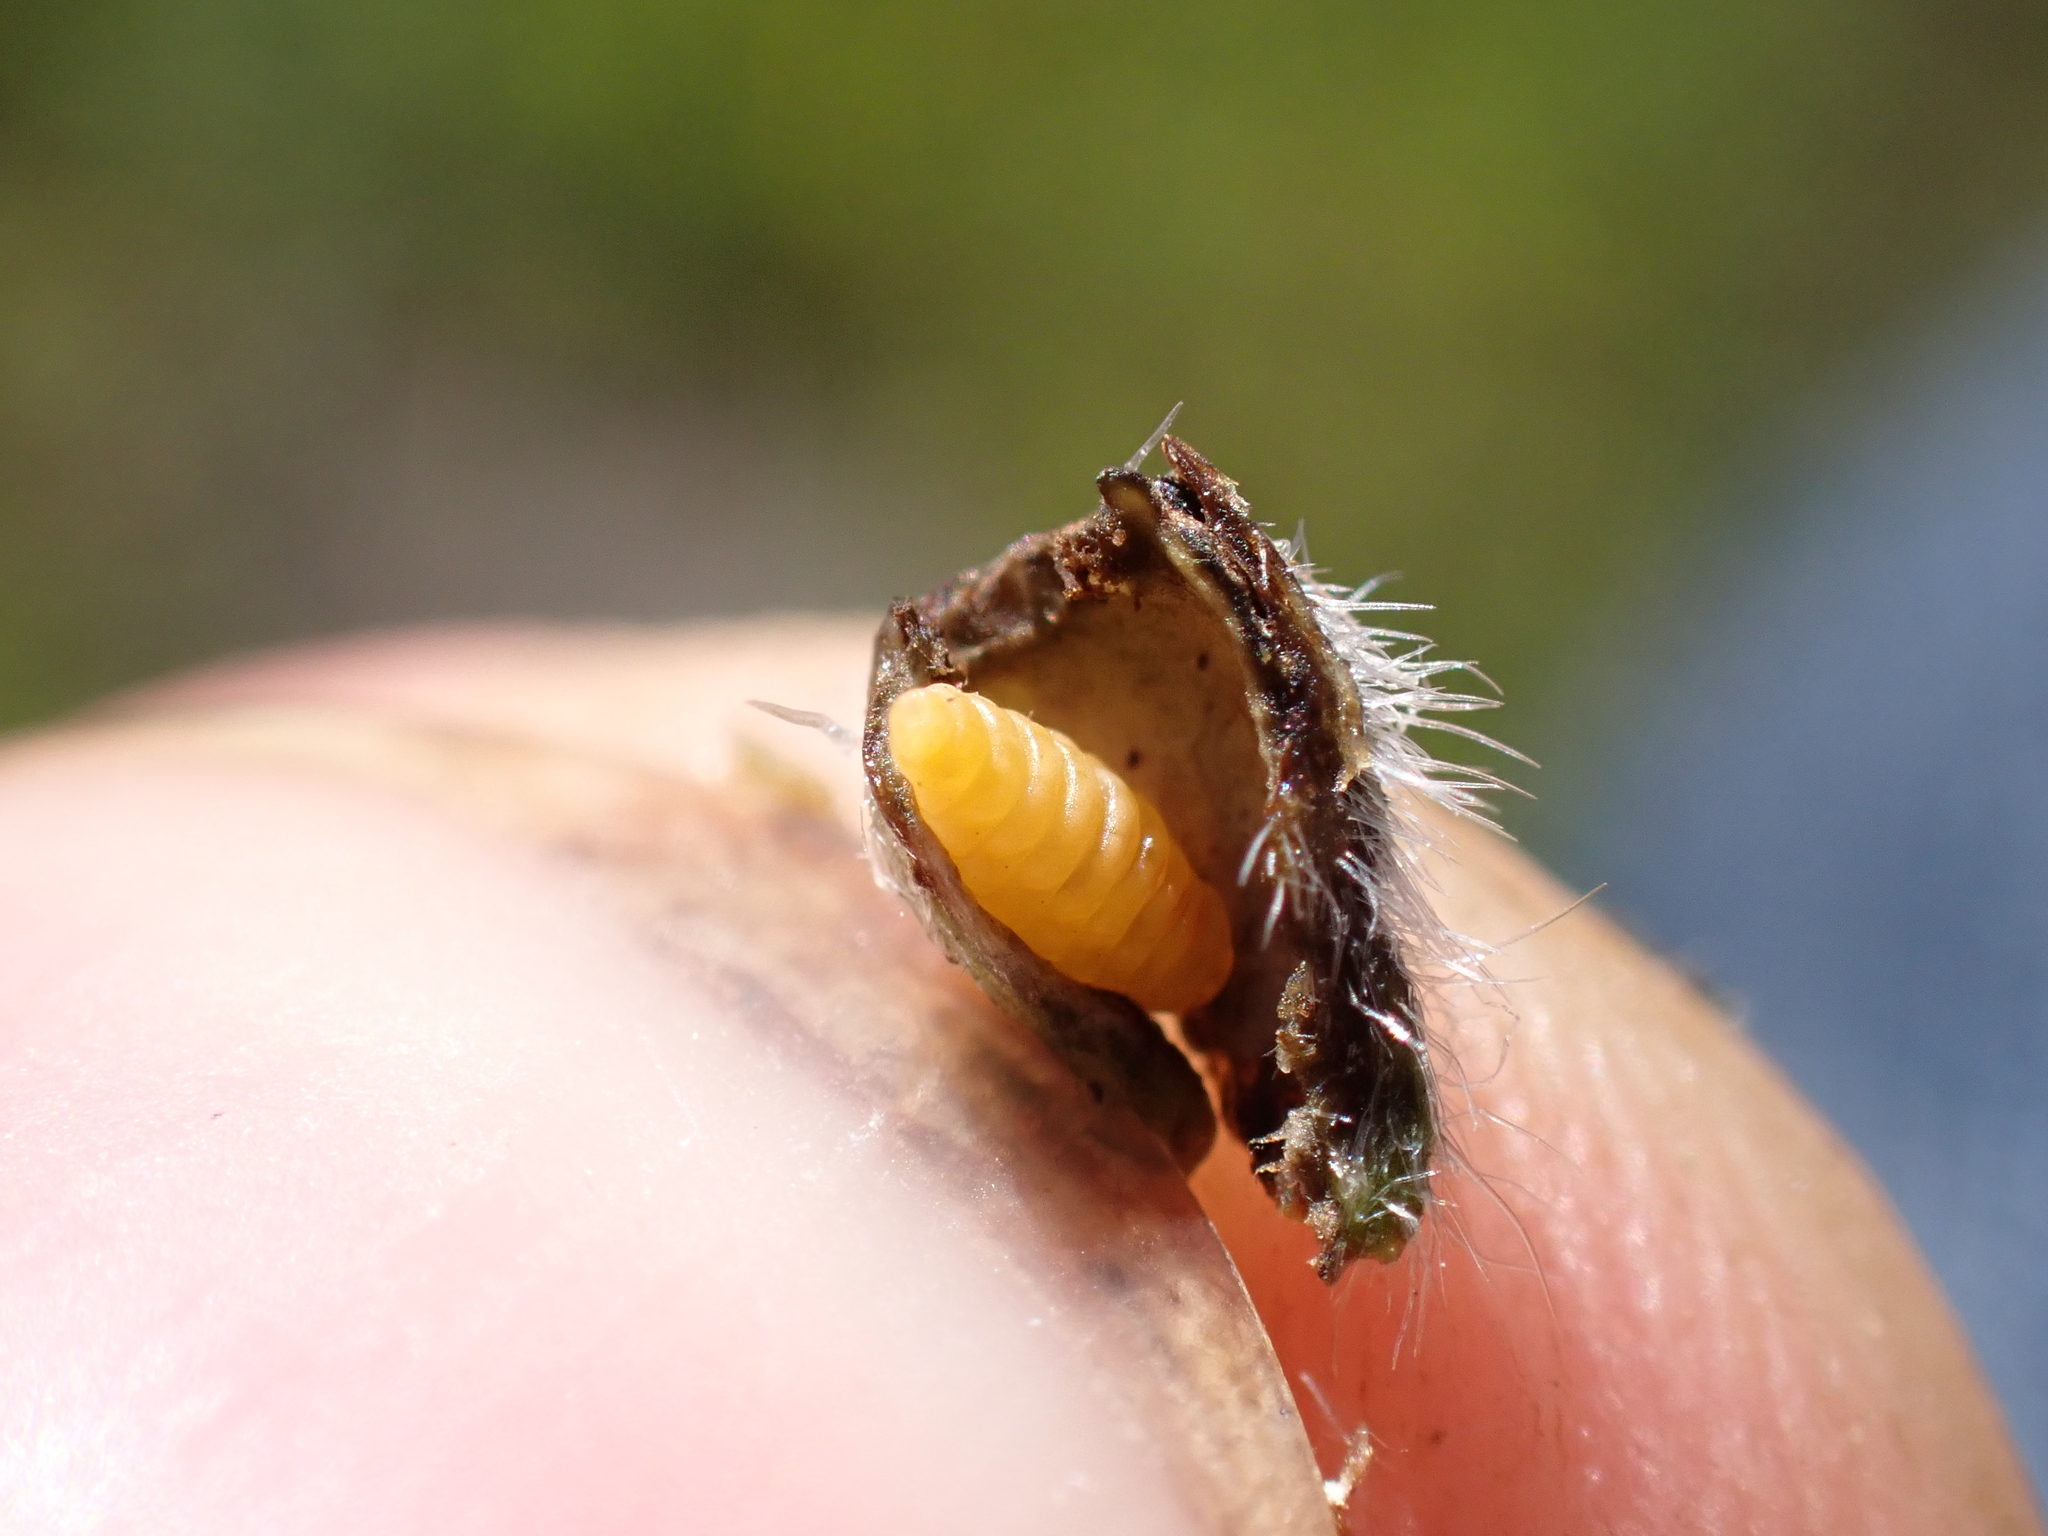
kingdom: Animalia
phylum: Arthropoda
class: Insecta
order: Diptera
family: Cecidomyiidae
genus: Asphondylia
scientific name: Asphondylia echii
